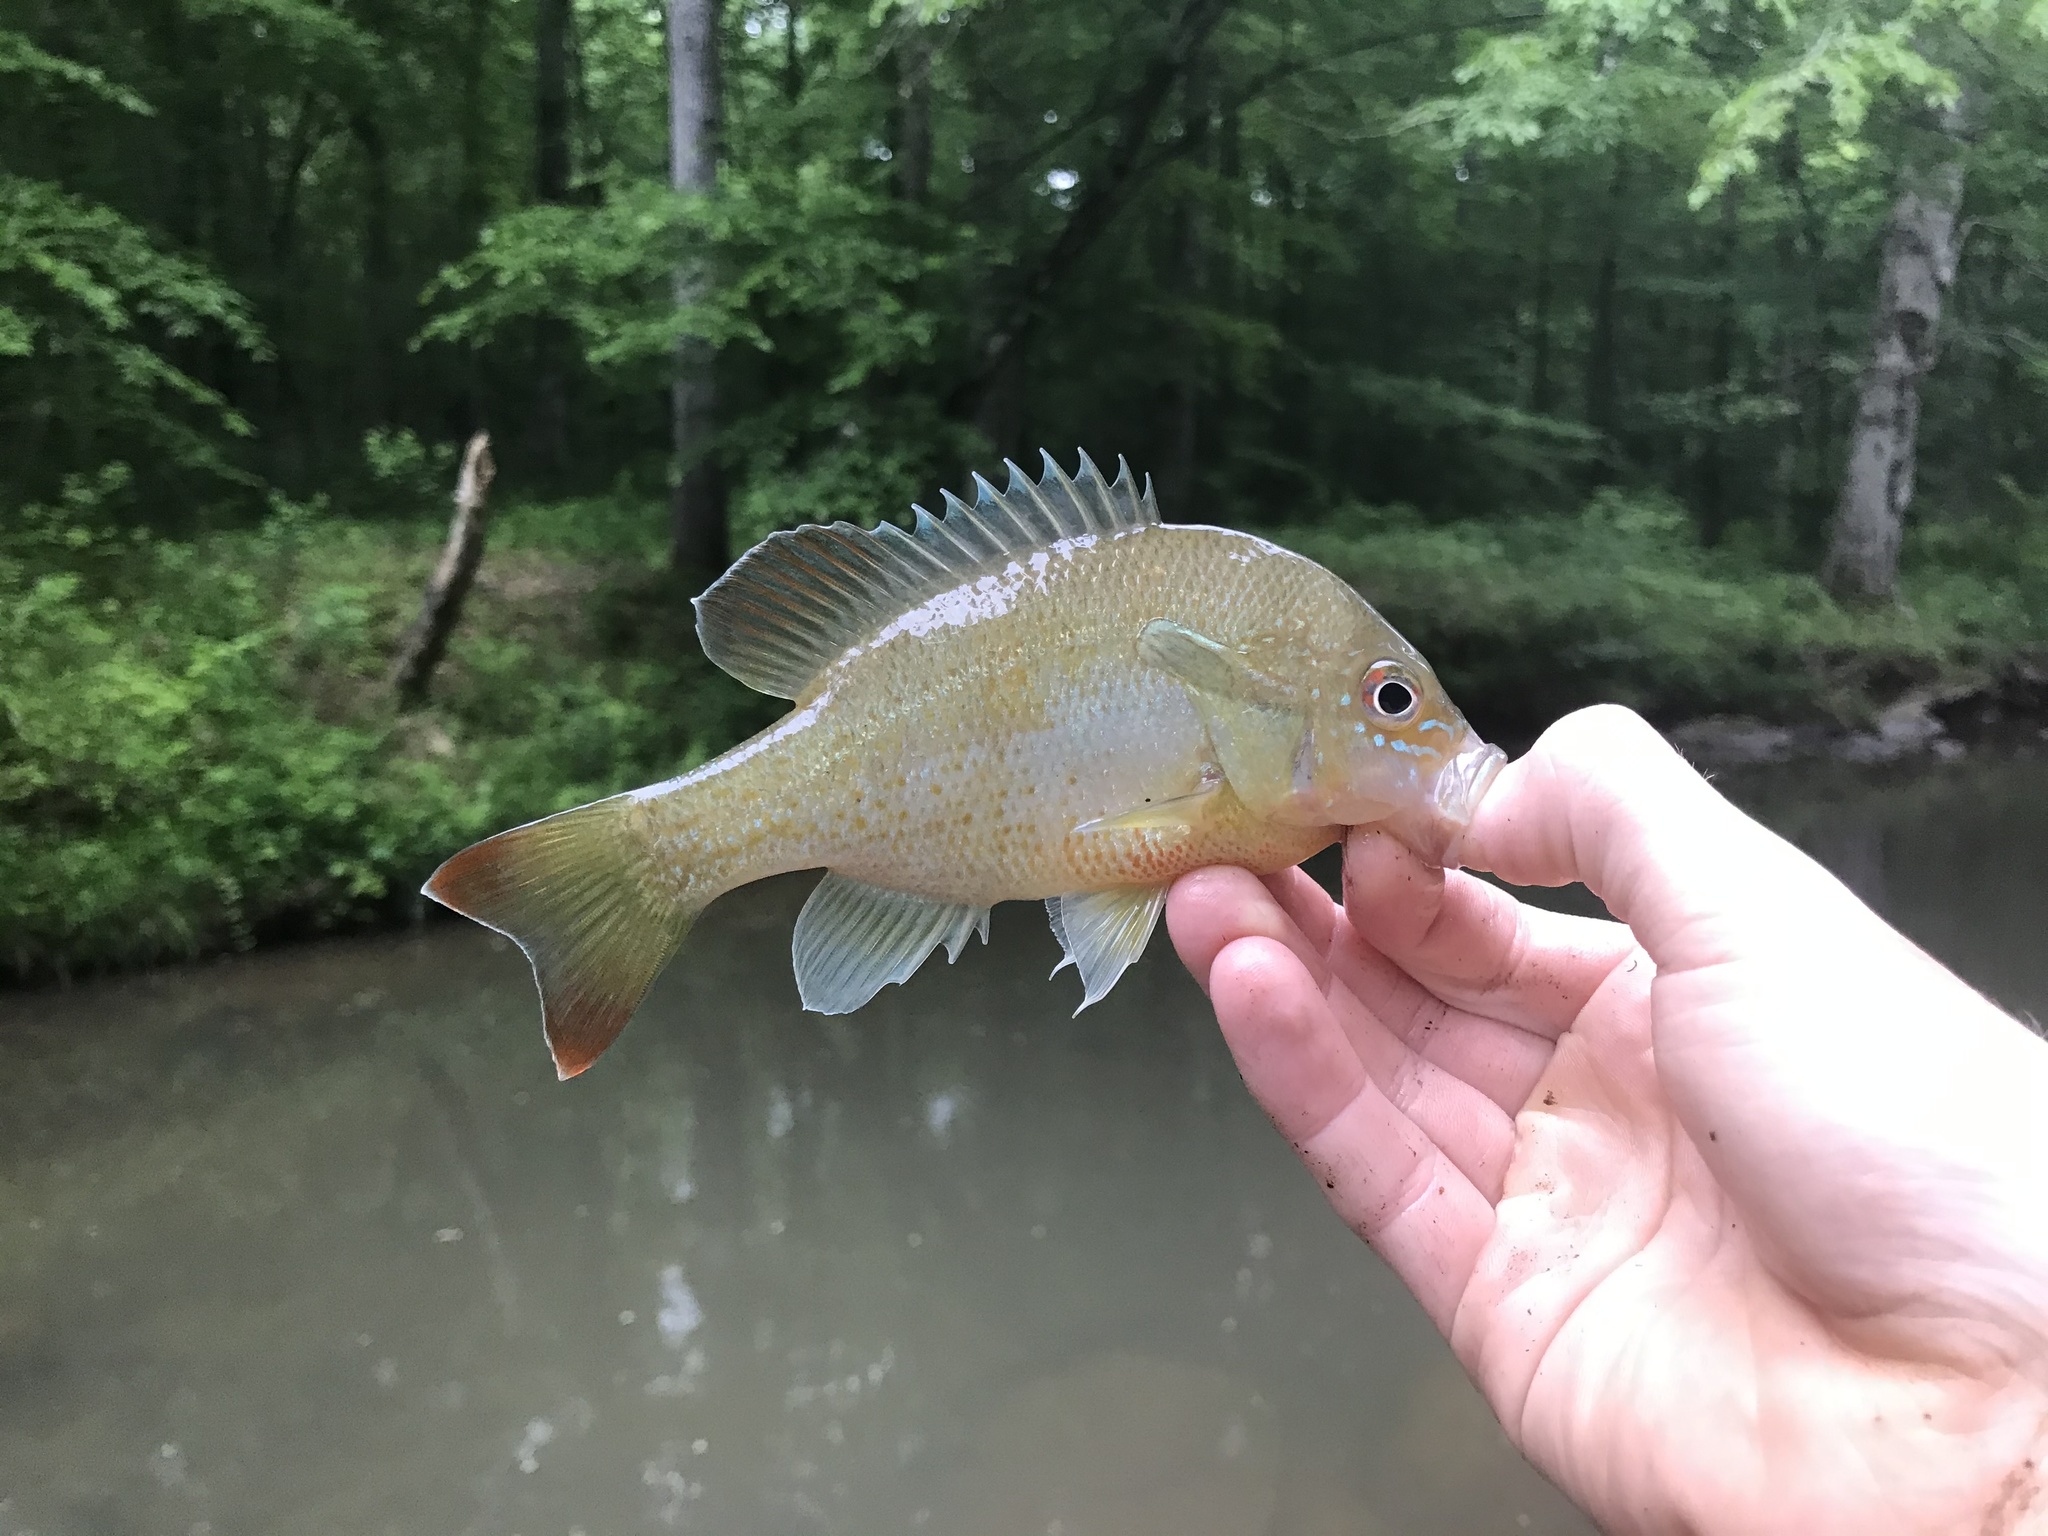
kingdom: Animalia
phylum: Chordata
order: Perciformes
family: Centrarchidae
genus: Lepomis
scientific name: Lepomis auritus
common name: Redbreast sunfish
